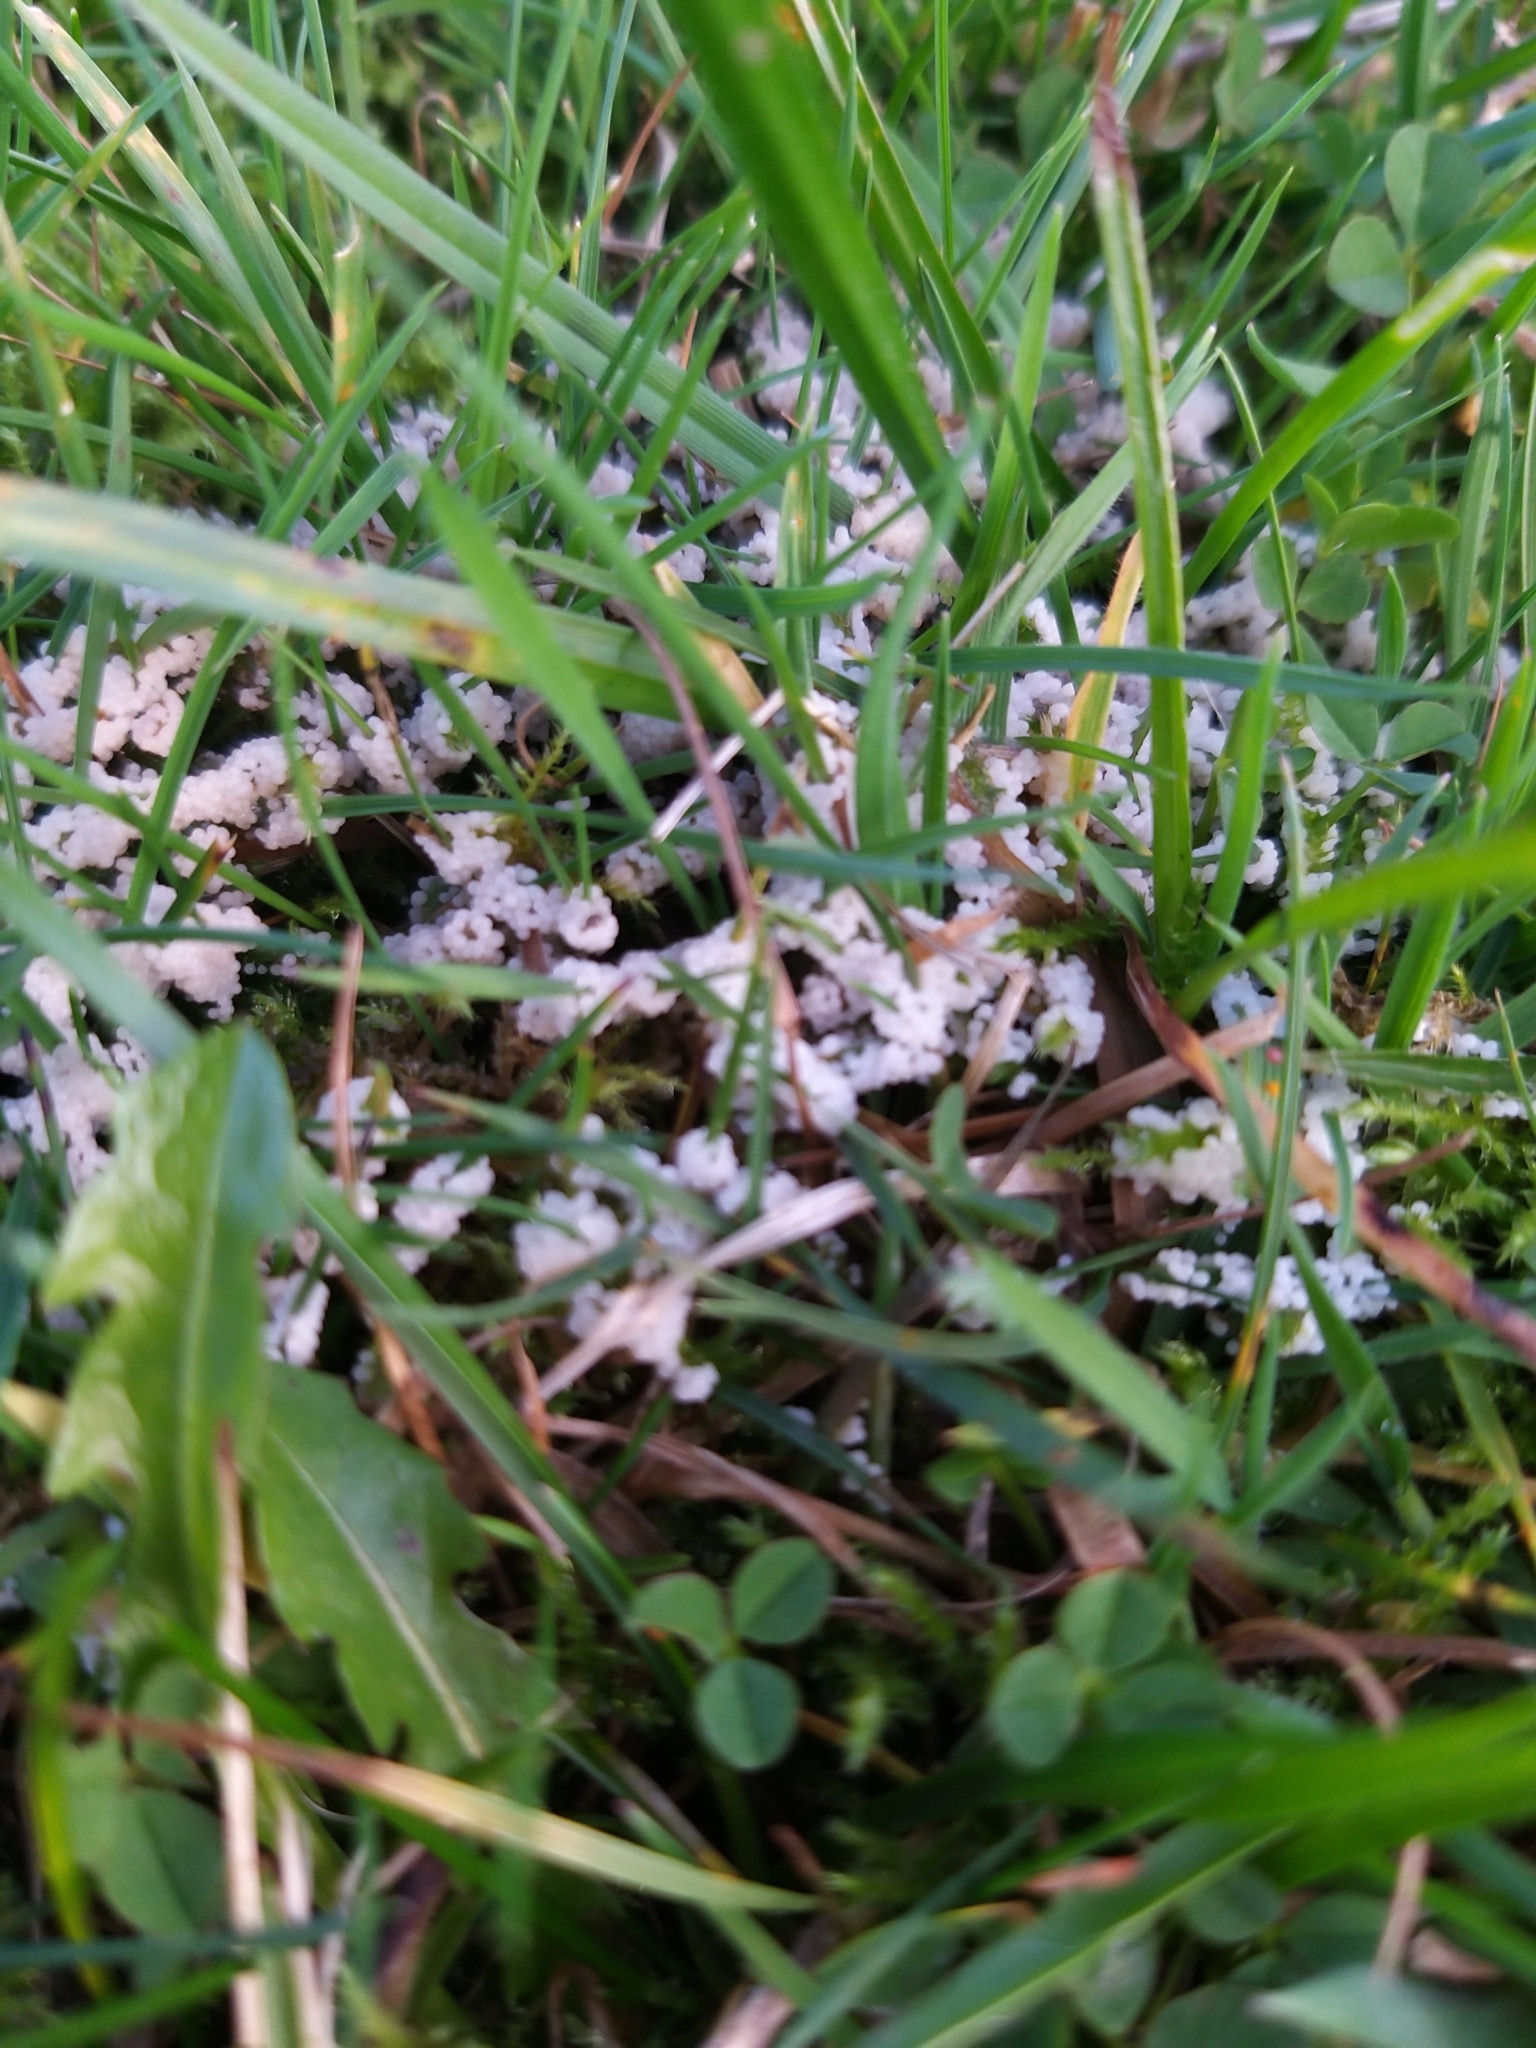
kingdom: Protozoa
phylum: Mycetozoa
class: Myxomycetes
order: Physarales
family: Physaraceae
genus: Didymium
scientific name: Didymium
